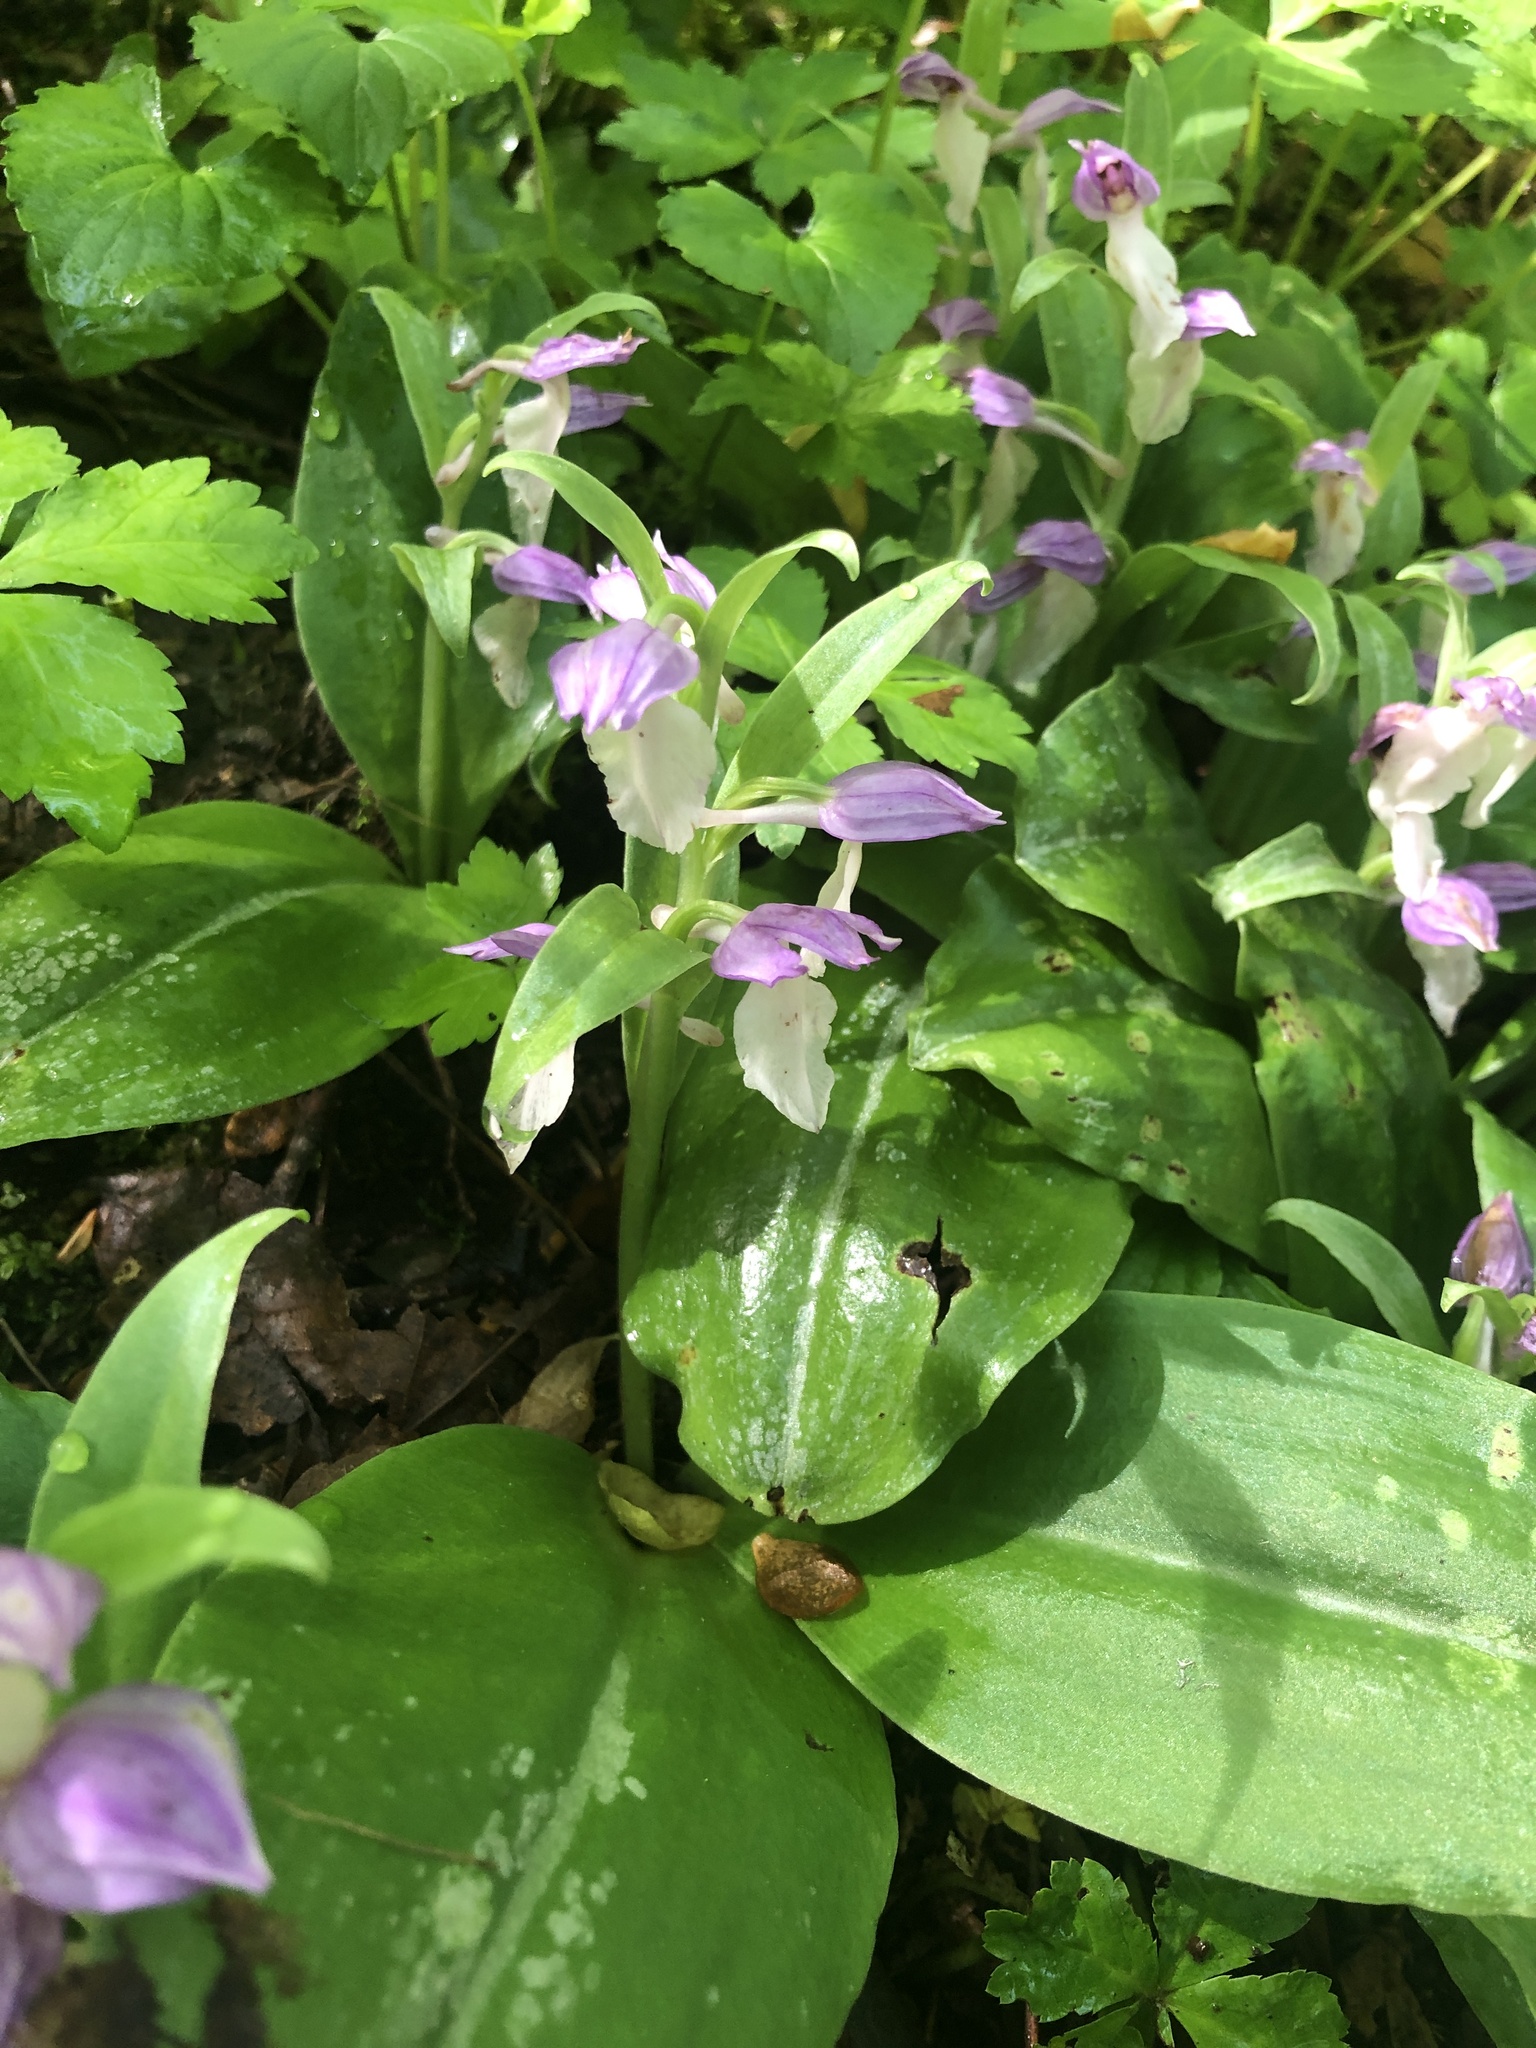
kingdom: Plantae
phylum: Tracheophyta
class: Liliopsida
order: Asparagales
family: Orchidaceae
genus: Galearis
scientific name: Galearis spectabilis
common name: Purple-hooded orchis
